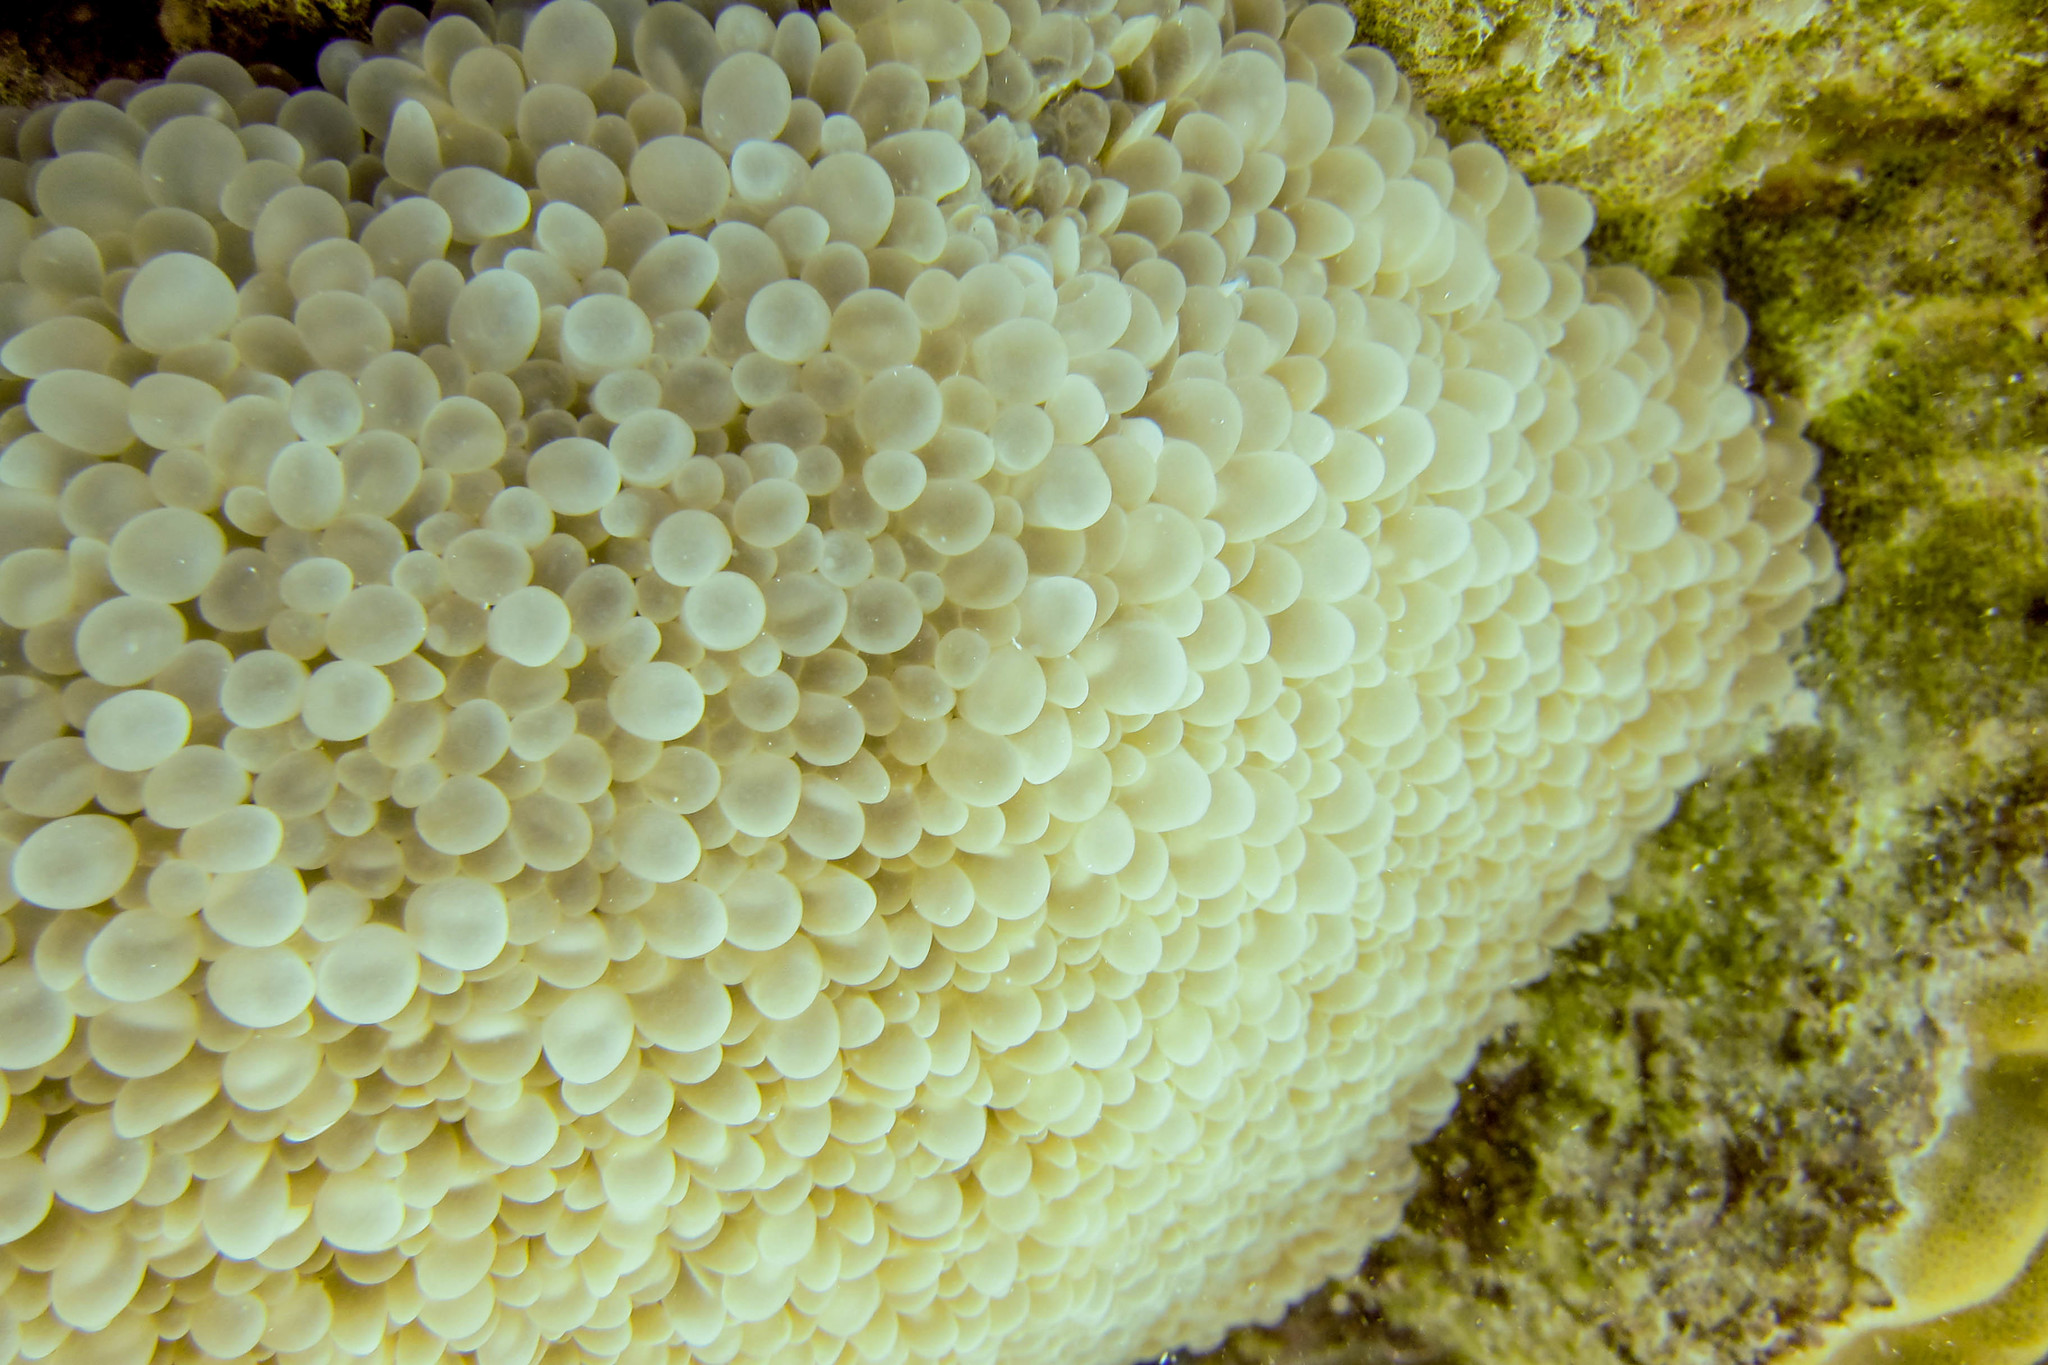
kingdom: Animalia
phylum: Cnidaria
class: Anthozoa
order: Scleractinia
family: Plerogyridae
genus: Physogyra
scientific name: Physogyra lichtensteini
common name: Tipped bubblegum coral
